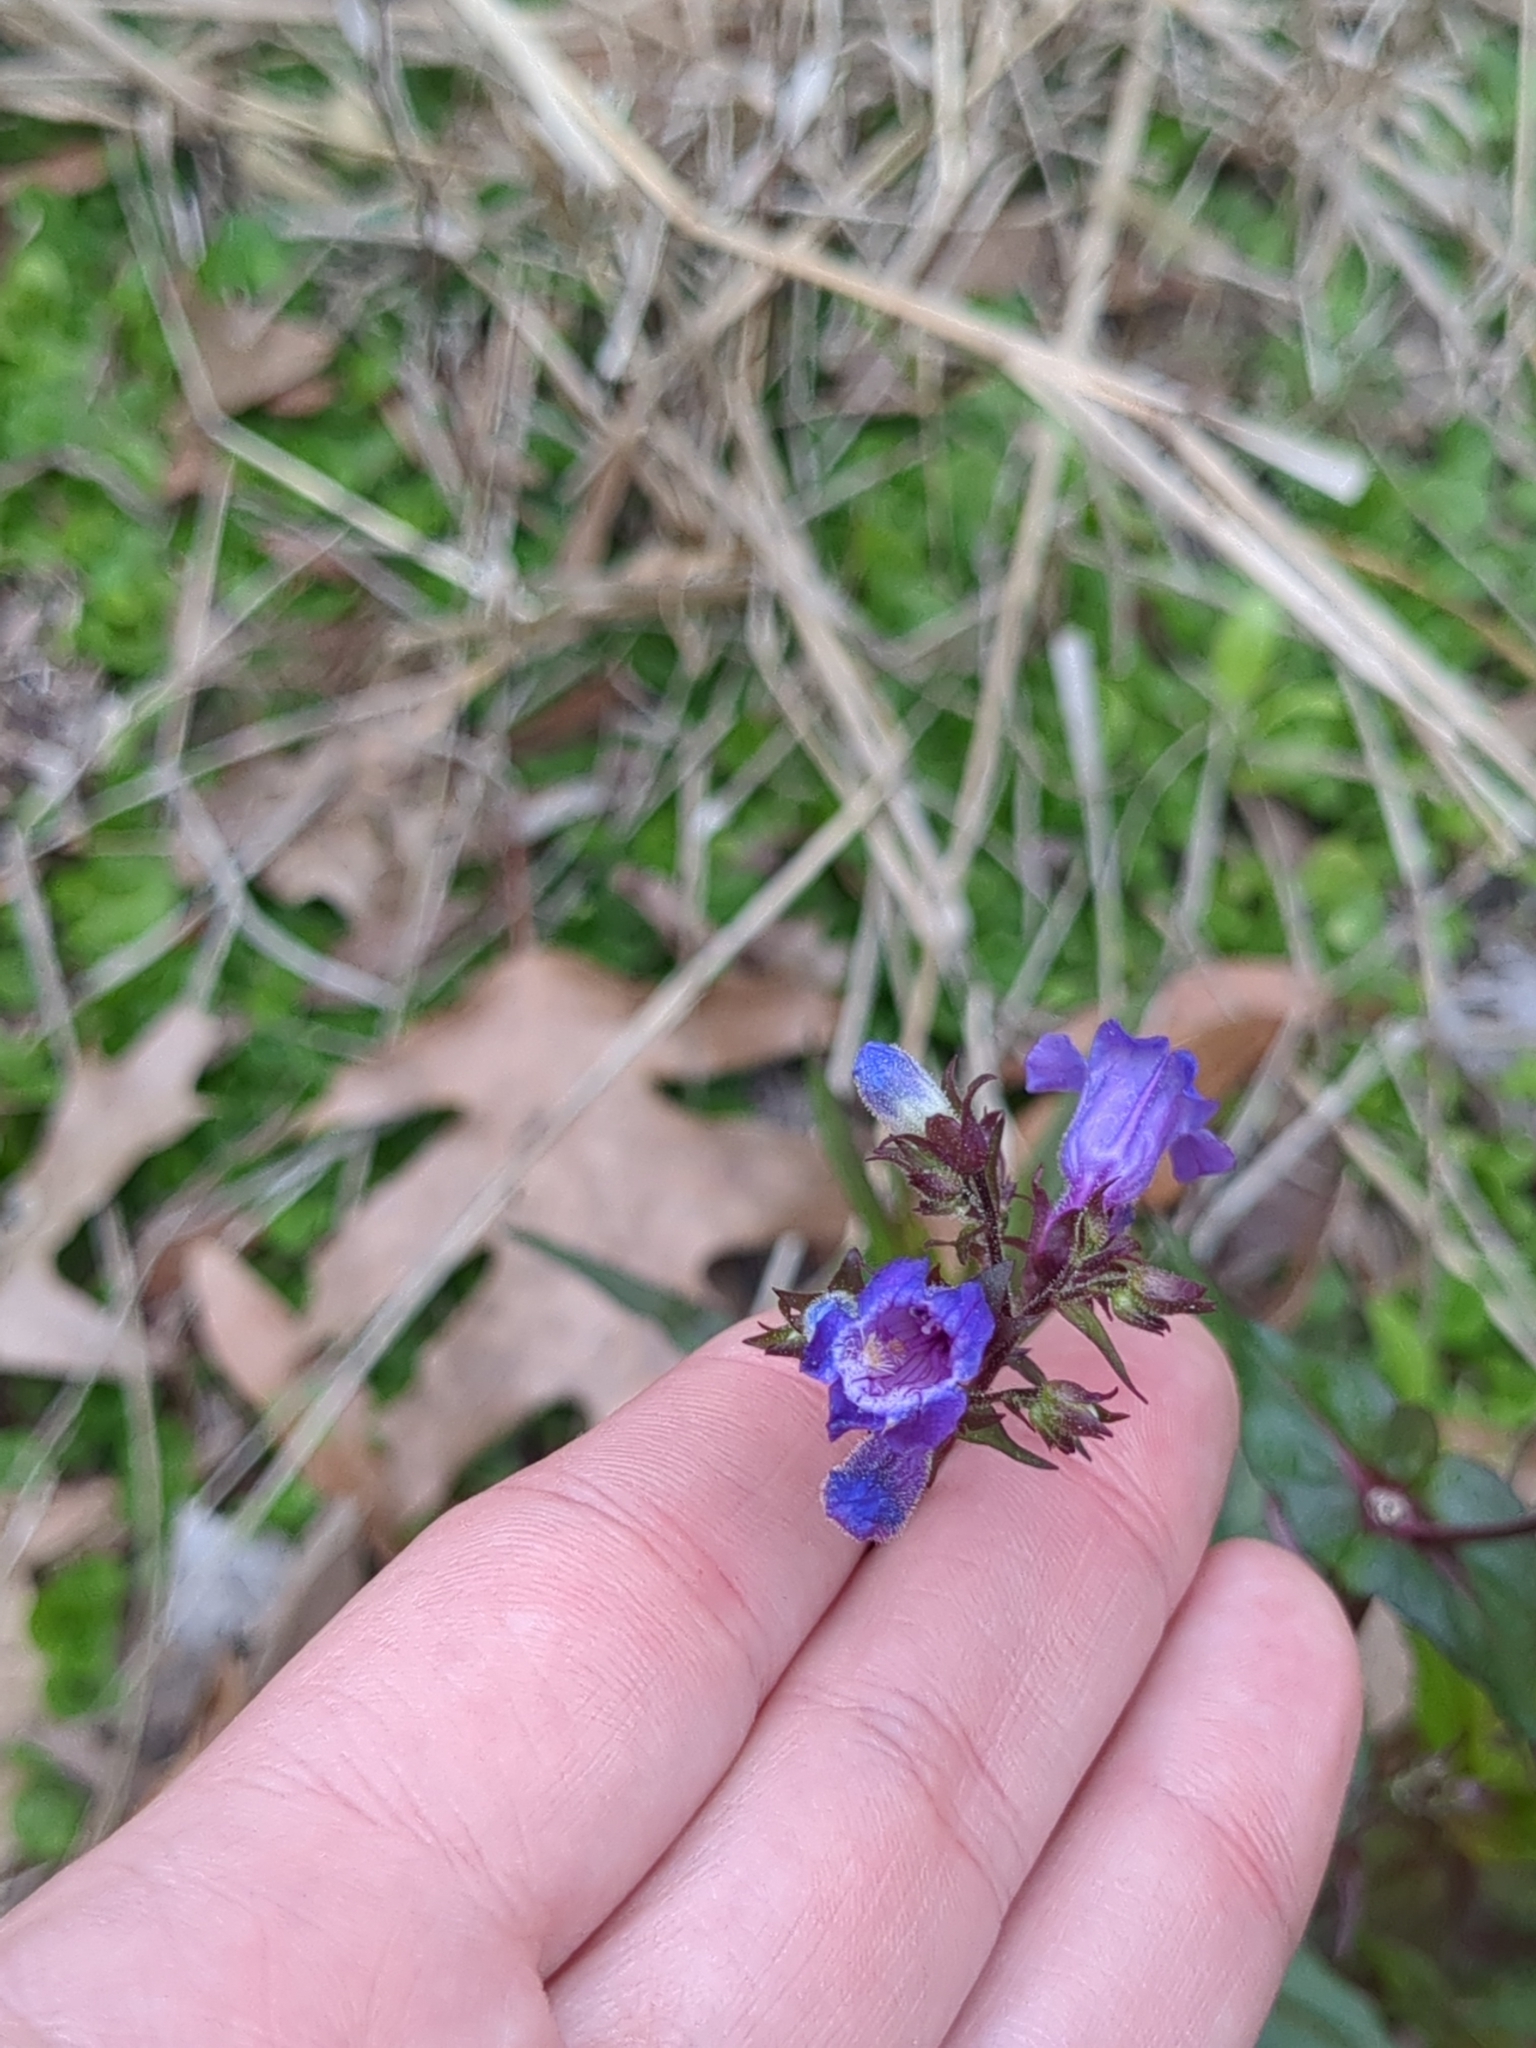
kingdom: Plantae
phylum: Tracheophyta
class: Magnoliopsida
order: Lamiales
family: Plantaginaceae
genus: Penstemon
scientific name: Penstemon tenuis
